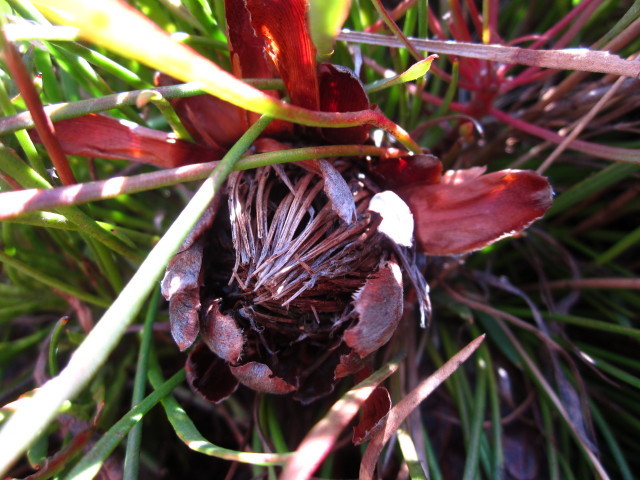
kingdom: Plantae
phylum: Tracheophyta
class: Magnoliopsida
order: Proteales
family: Proteaceae
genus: Protea
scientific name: Protea montana
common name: Swartberg sugarbush
